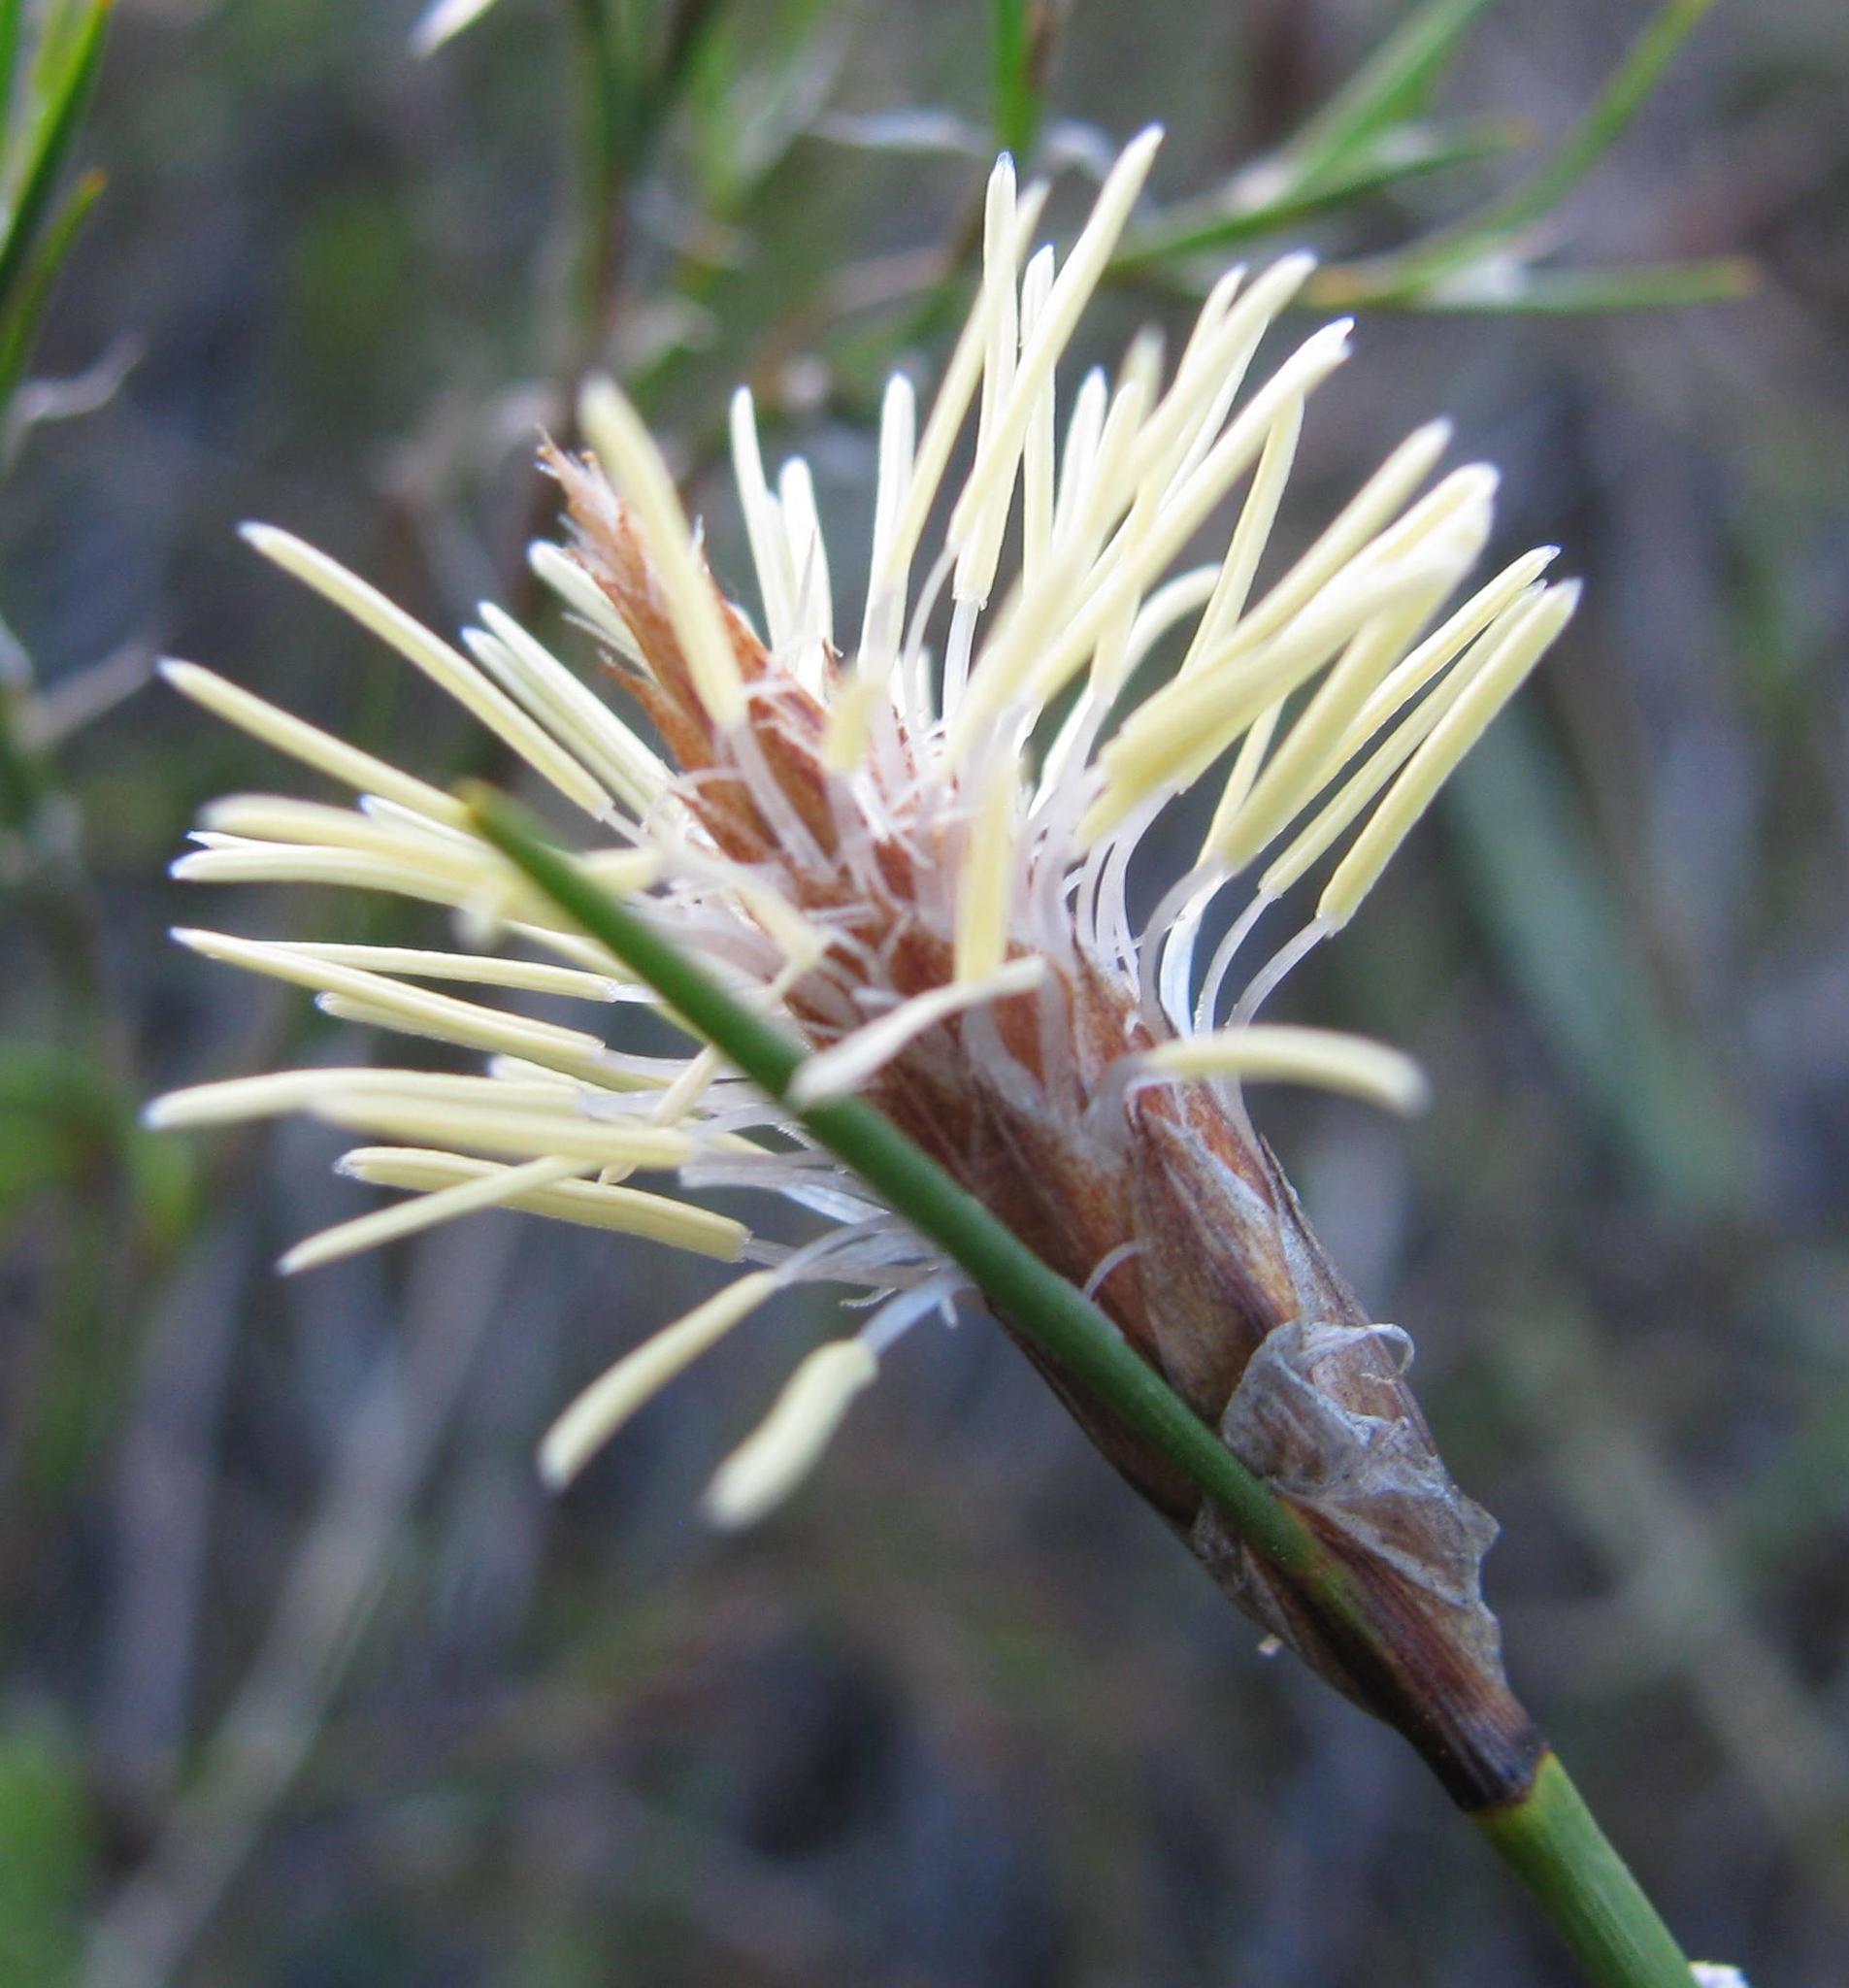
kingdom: Plantae
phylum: Tracheophyta
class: Liliopsida
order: Poales
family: Cyperaceae
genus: Ficinia
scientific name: Ficinia deusta
